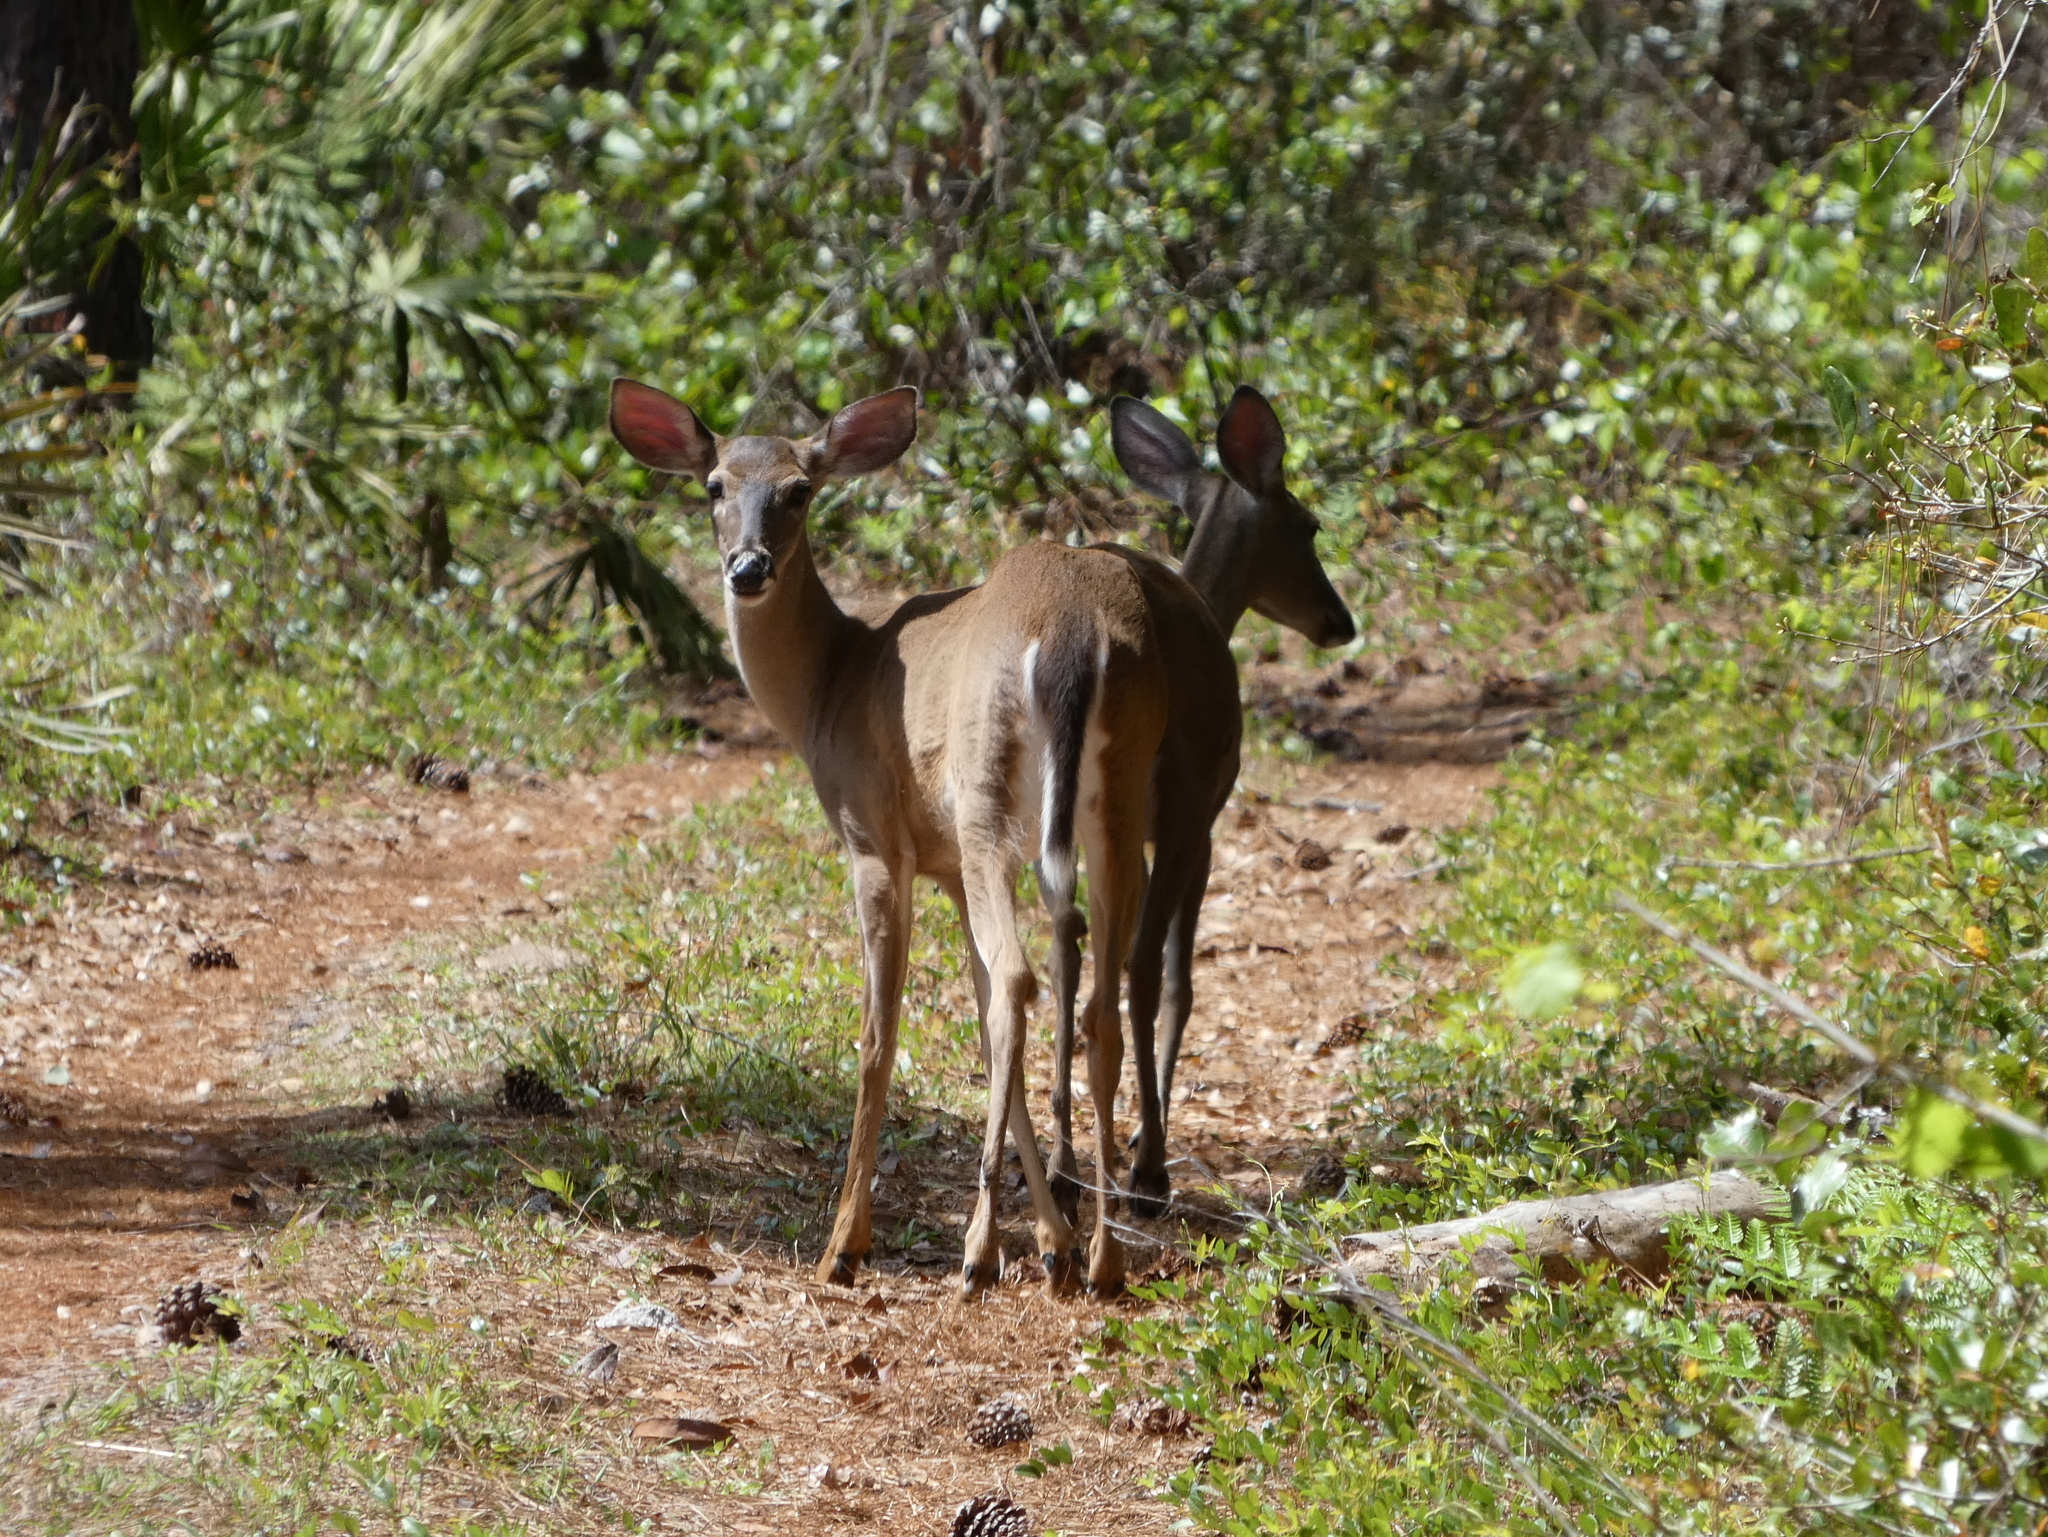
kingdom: Animalia
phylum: Chordata
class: Mammalia
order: Artiodactyla
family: Cervidae
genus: Odocoileus
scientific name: Odocoileus virginianus
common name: White-tailed deer
